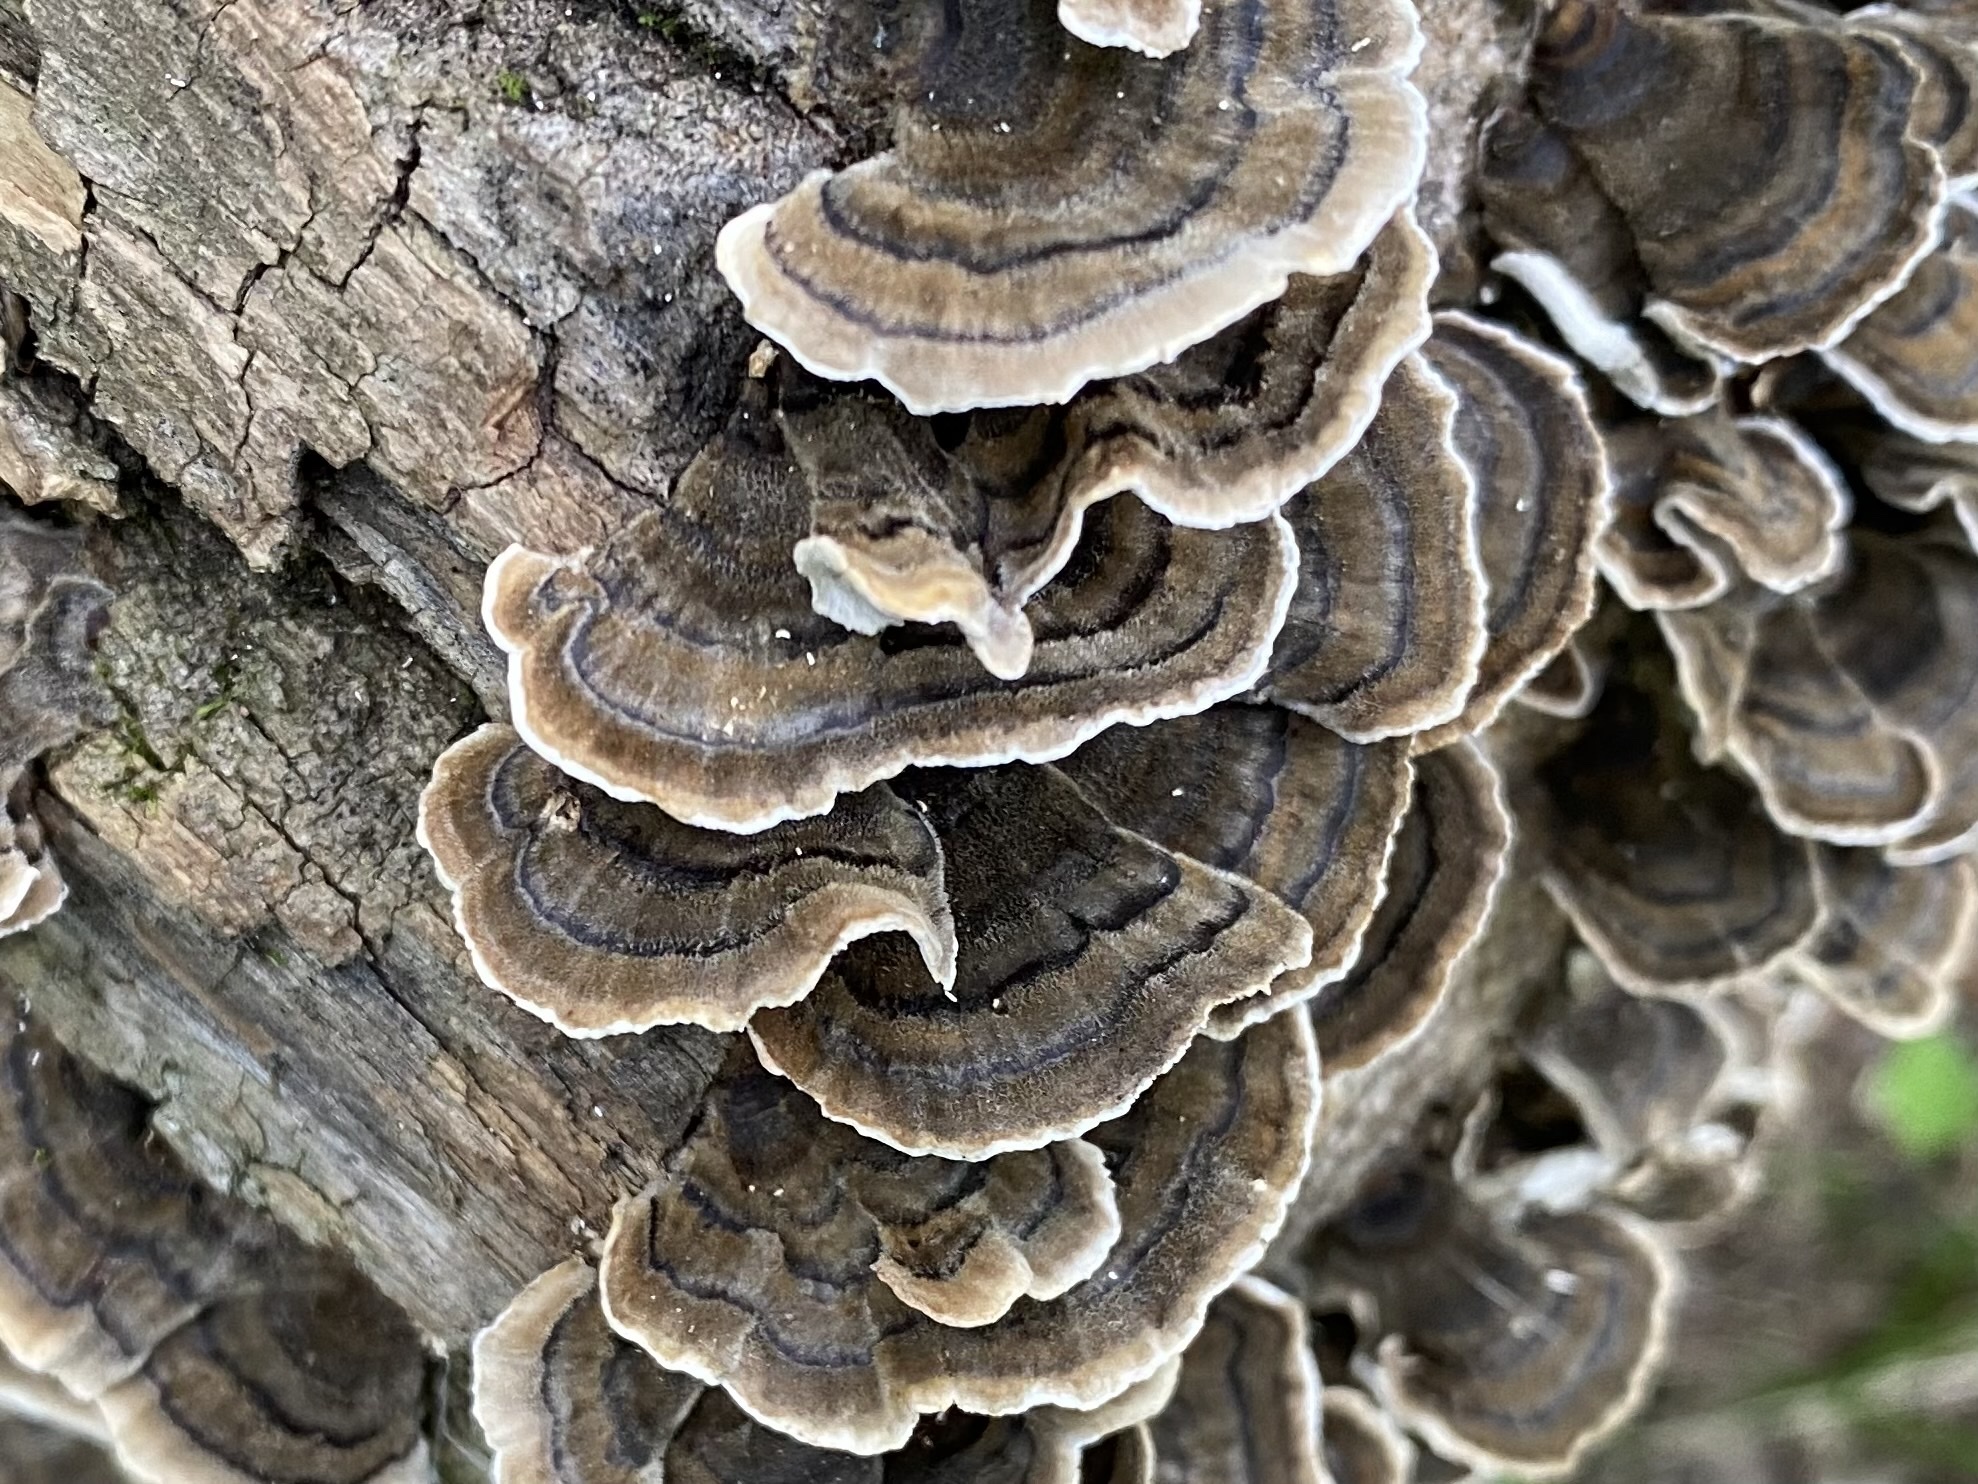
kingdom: Fungi
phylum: Basidiomycota
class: Agaricomycetes
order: Polyporales
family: Polyporaceae
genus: Trametes
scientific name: Trametes versicolor
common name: Turkeytail
